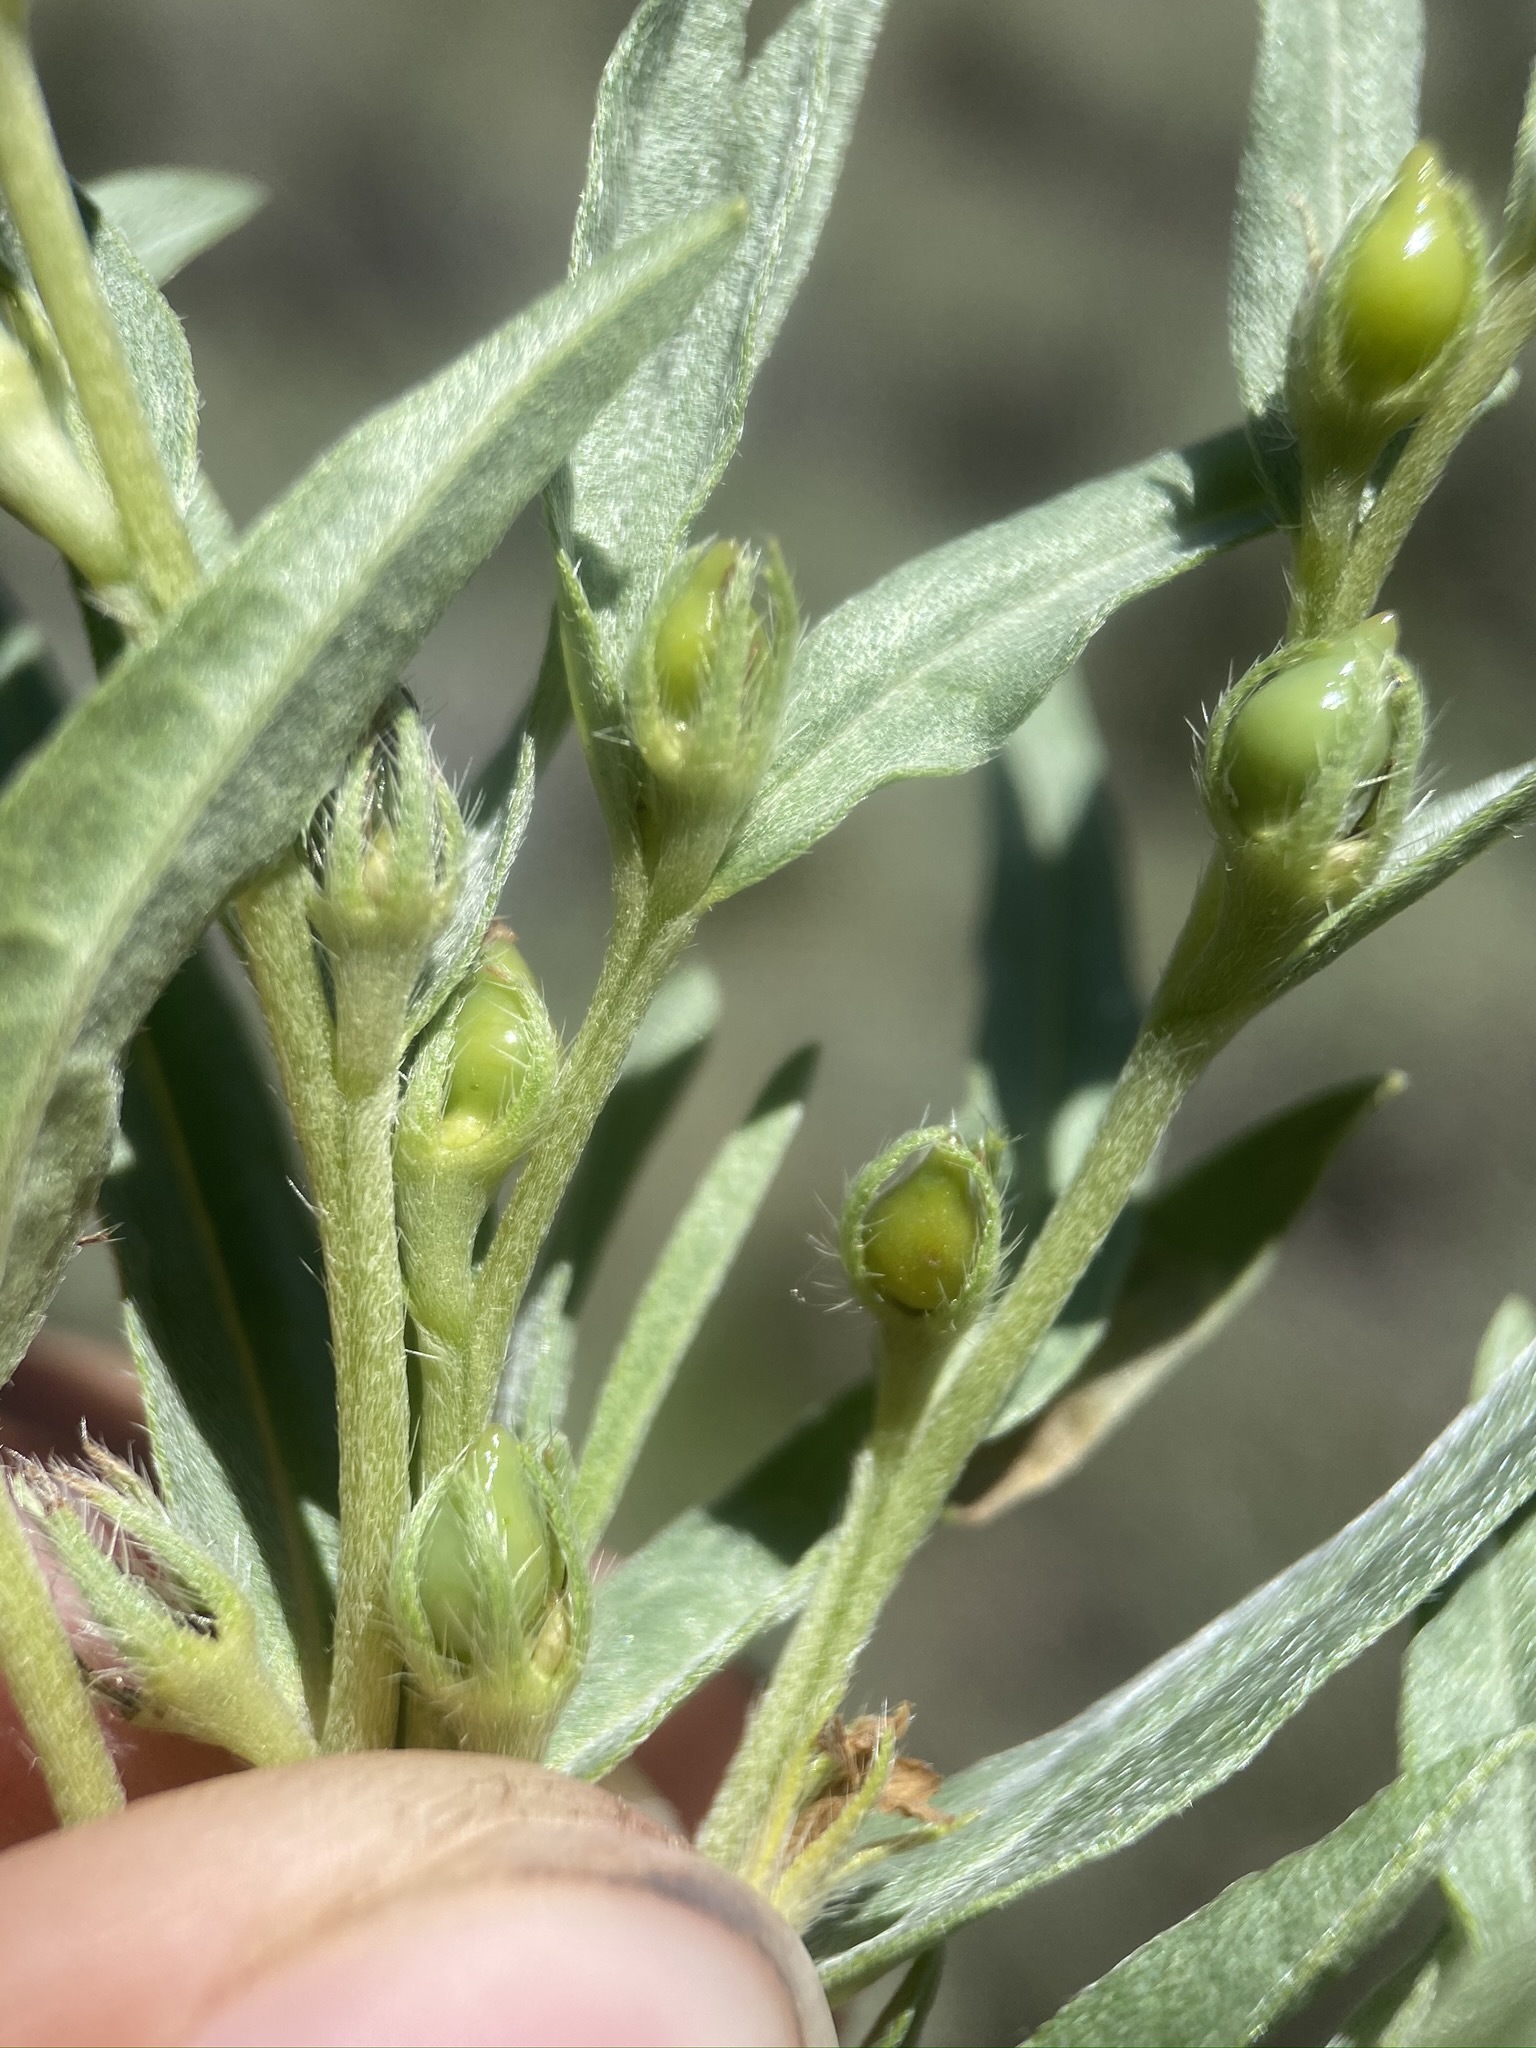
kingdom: Plantae
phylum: Tracheophyta
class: Magnoliopsida
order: Boraginales
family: Boraginaceae
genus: Lithospermum
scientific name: Lithospermum ruderale
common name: Western gromwell
